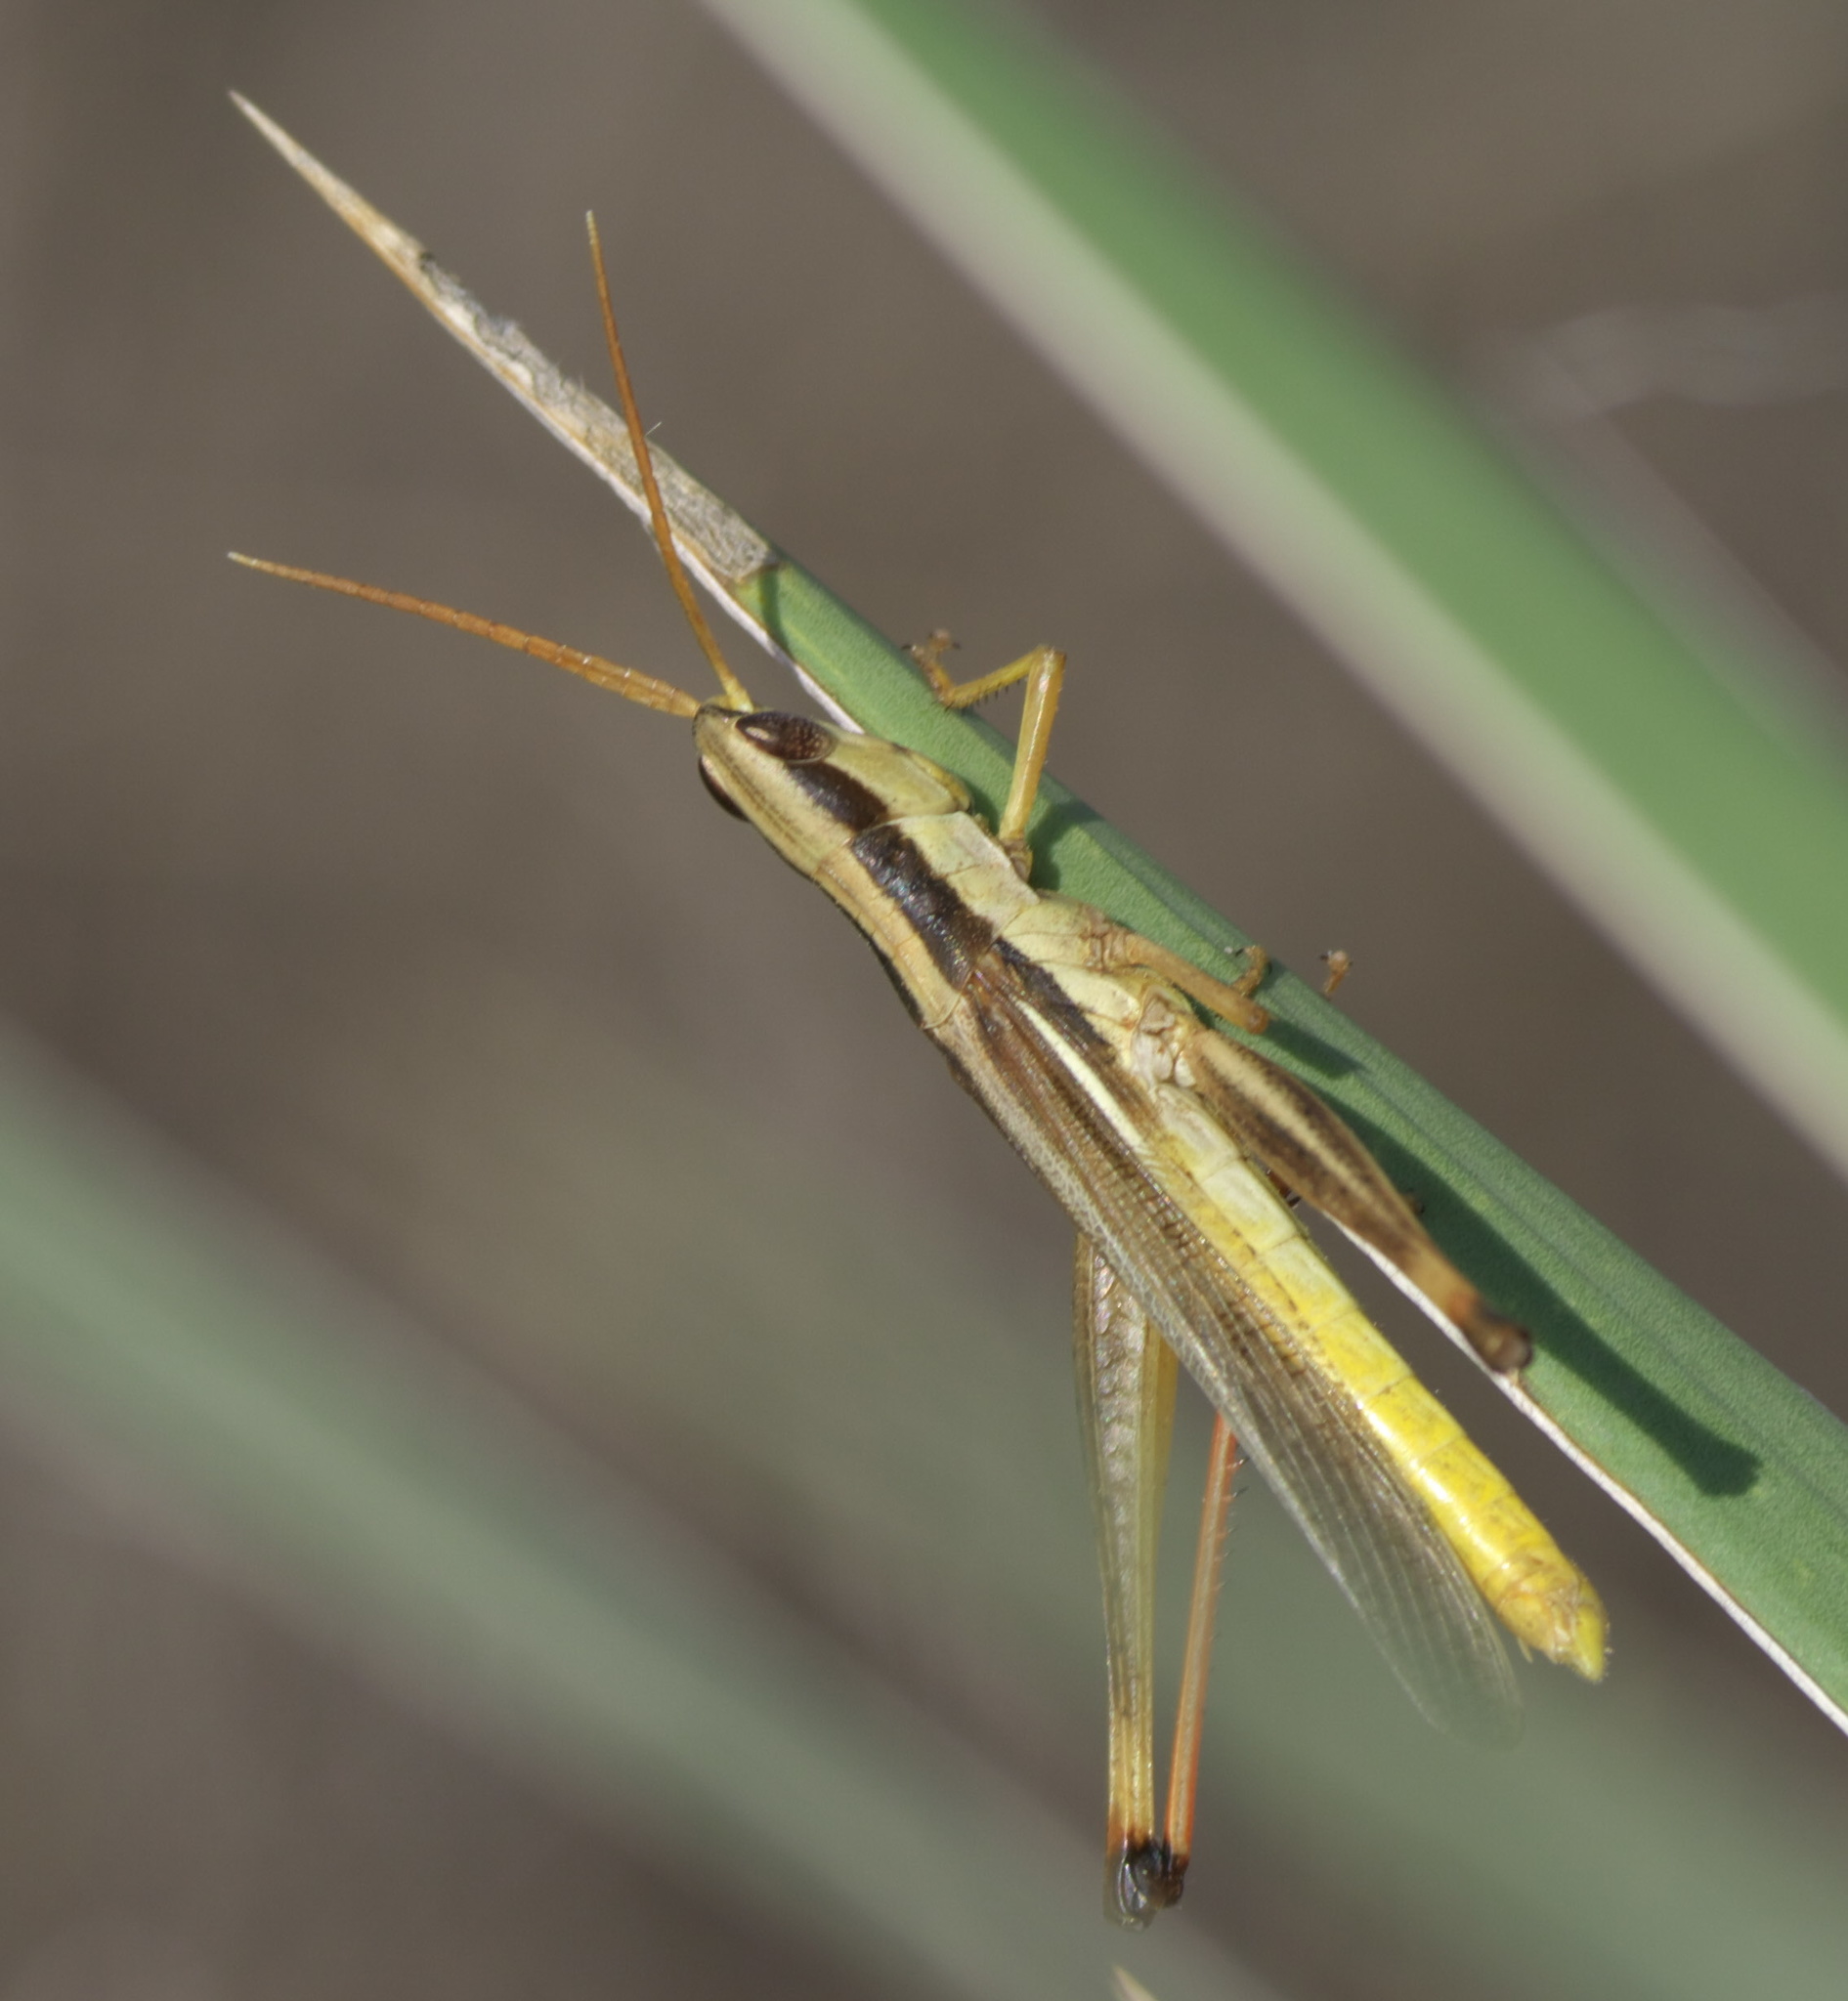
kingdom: Animalia
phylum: Arthropoda
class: Insecta
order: Orthoptera
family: Acrididae
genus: Mermiria
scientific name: Mermiria bivittata
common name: Two-striped mermiria grasshopper
